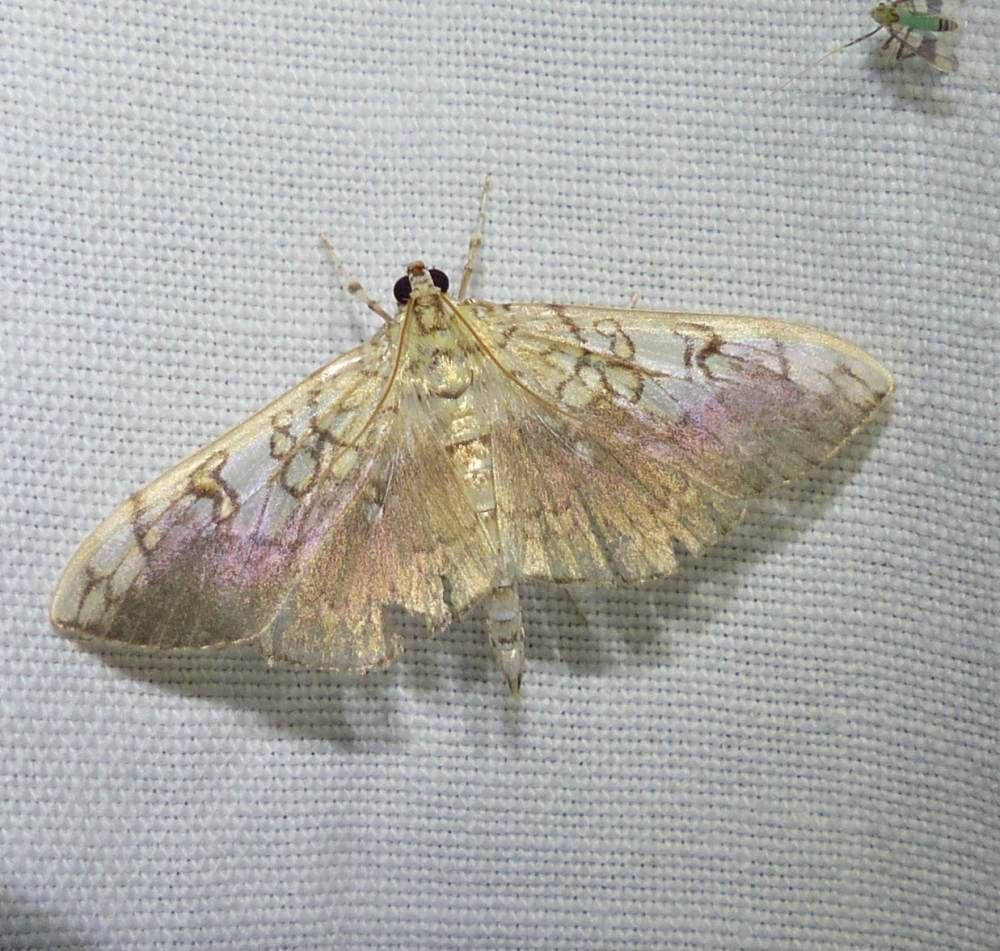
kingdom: Animalia
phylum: Arthropoda
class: Insecta
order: Lepidoptera
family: Crambidae
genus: Pantographa
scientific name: Pantographa limata
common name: Basswood leafroller moth
